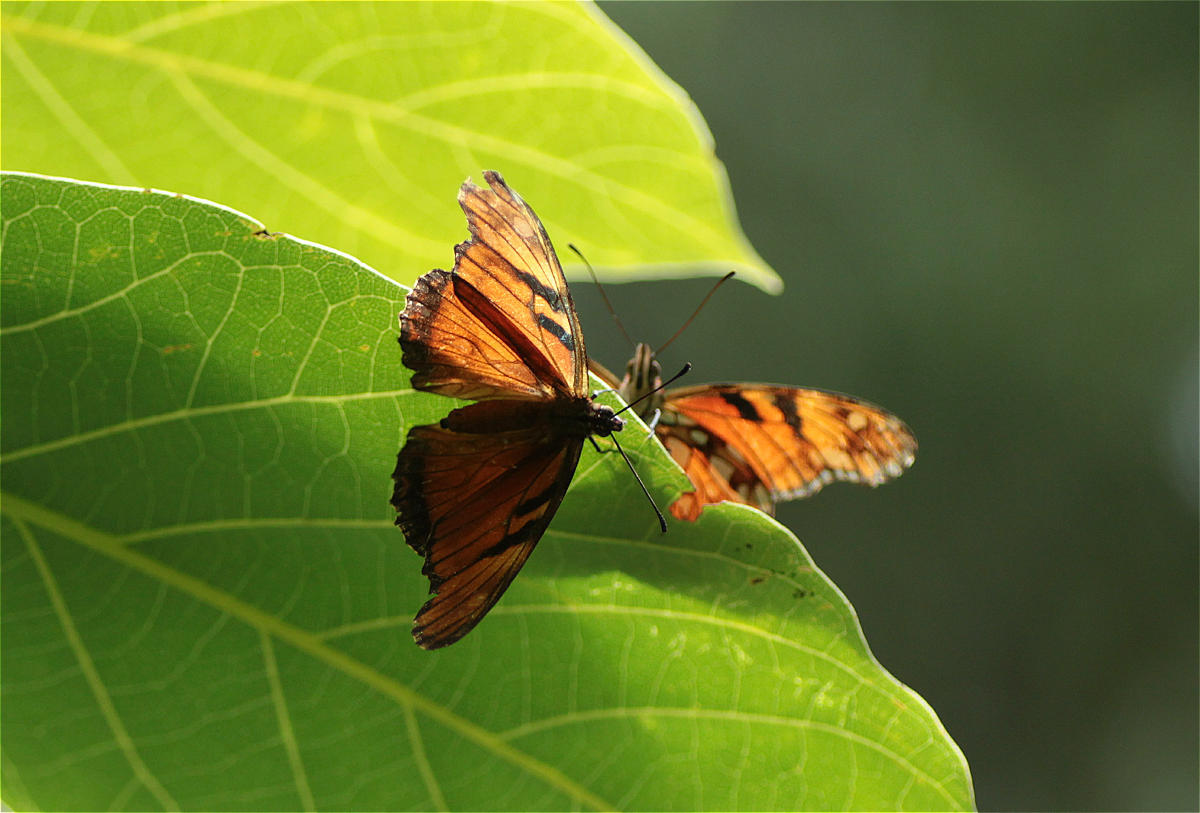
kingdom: Animalia
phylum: Arthropoda
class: Insecta
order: Lepidoptera
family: Nymphalidae
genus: Dione
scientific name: Dione juno
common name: Juno silverspot
